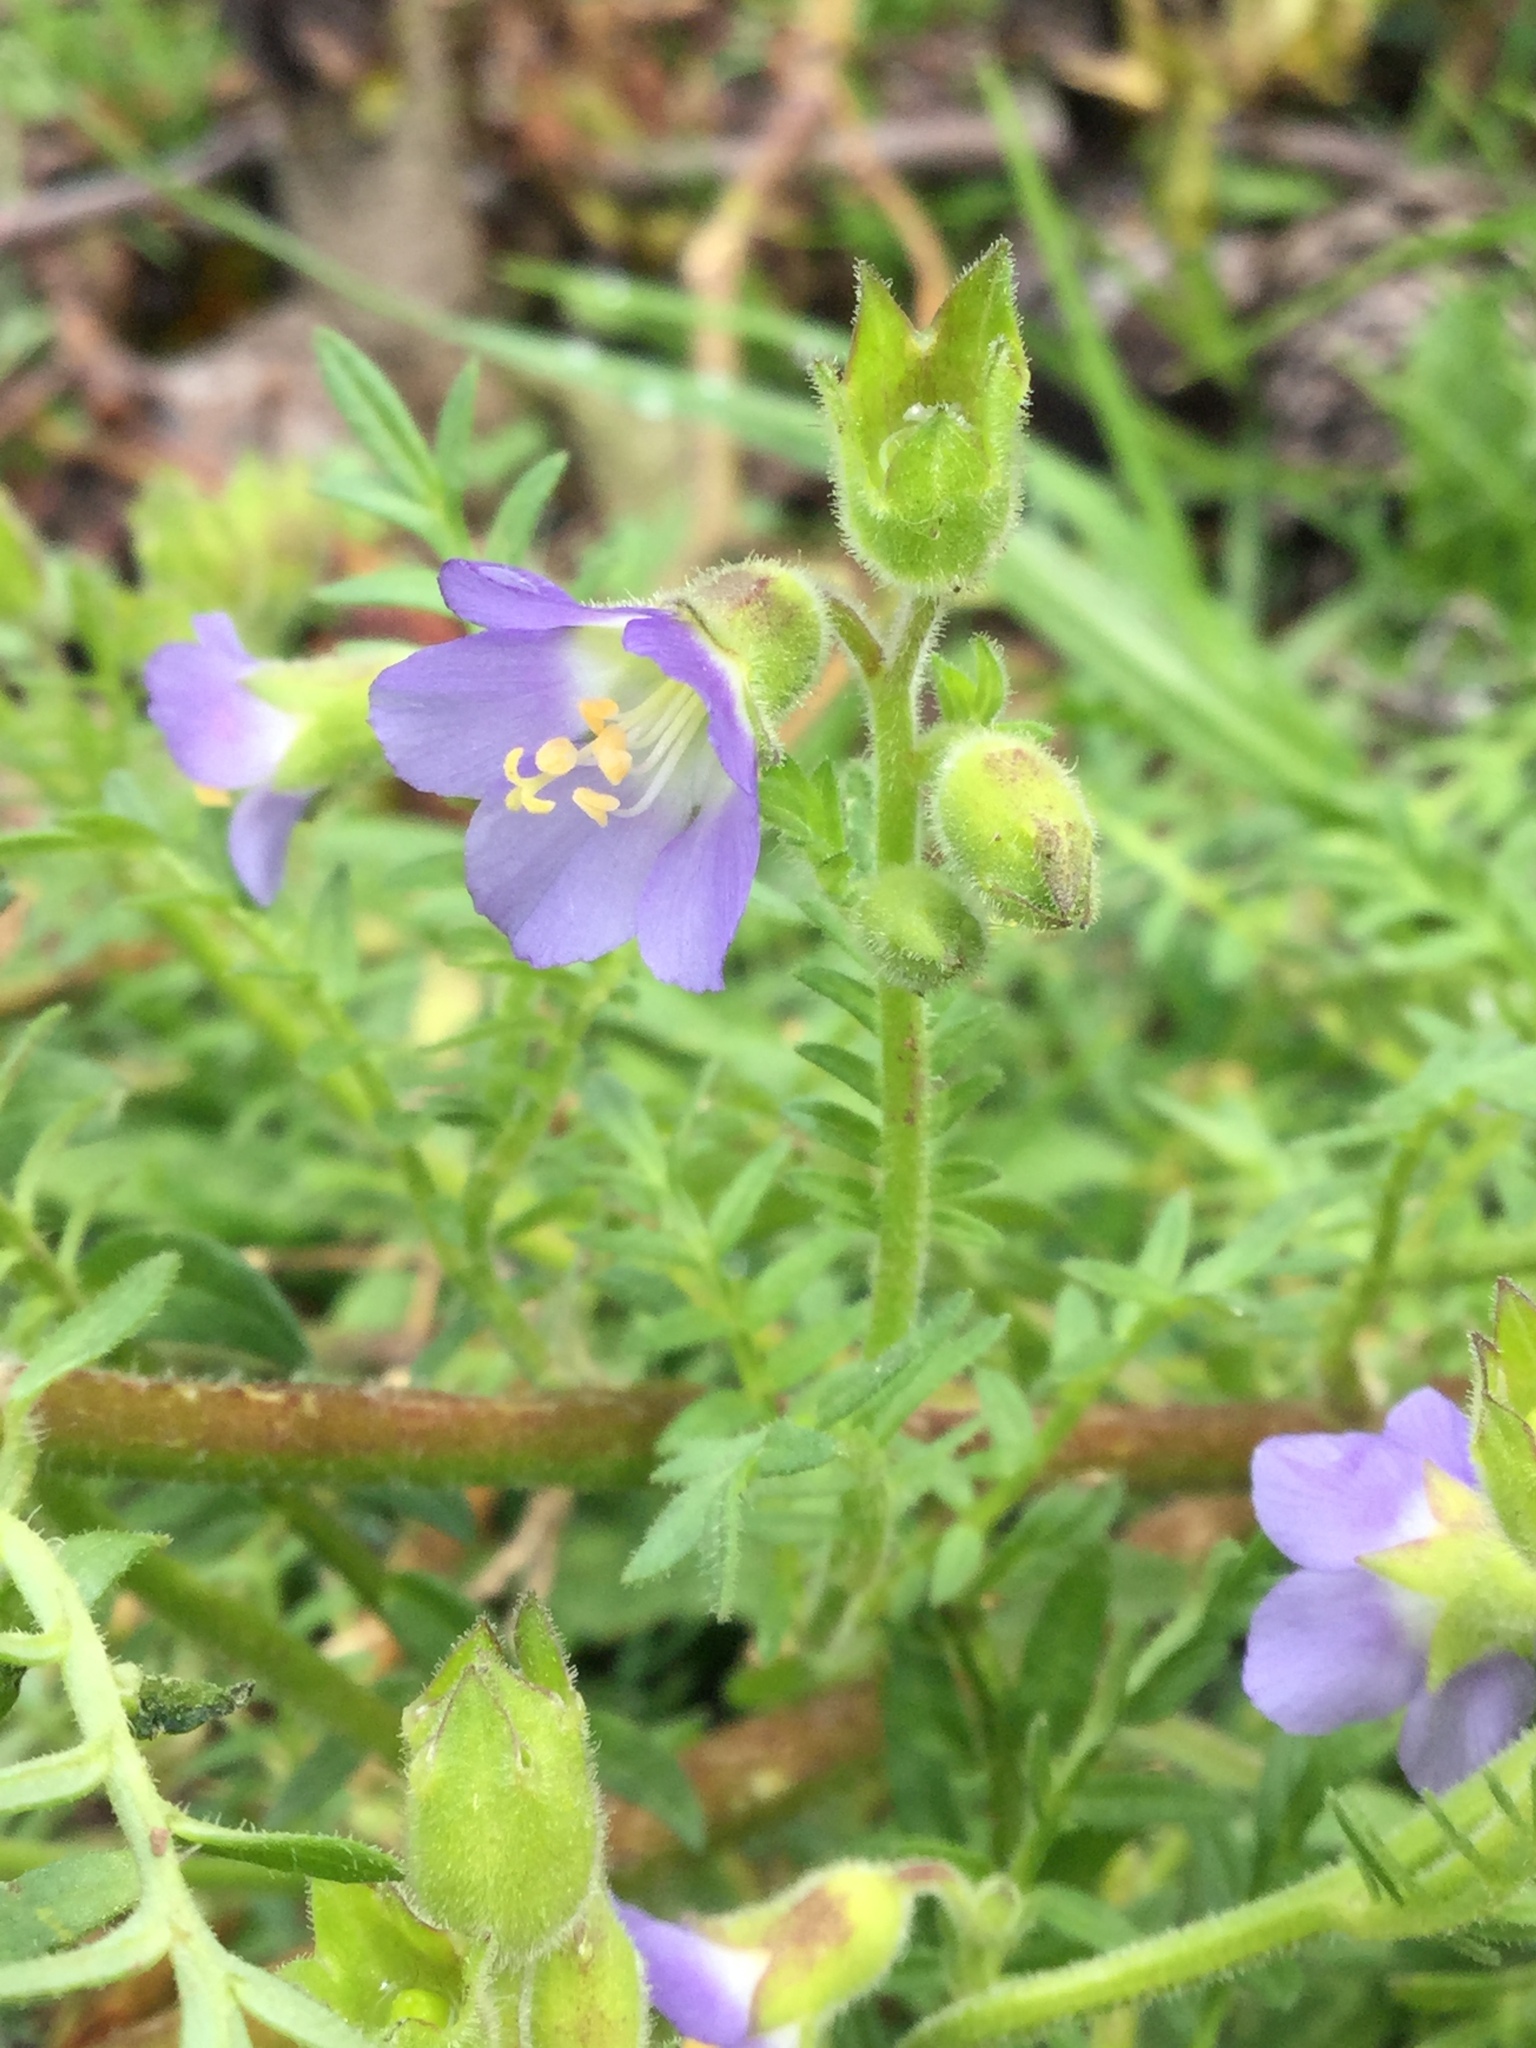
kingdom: Plantae
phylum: Tracheophyta
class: Magnoliopsida
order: Ericales
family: Polemoniaceae
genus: Polemonium
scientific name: Polemonium
